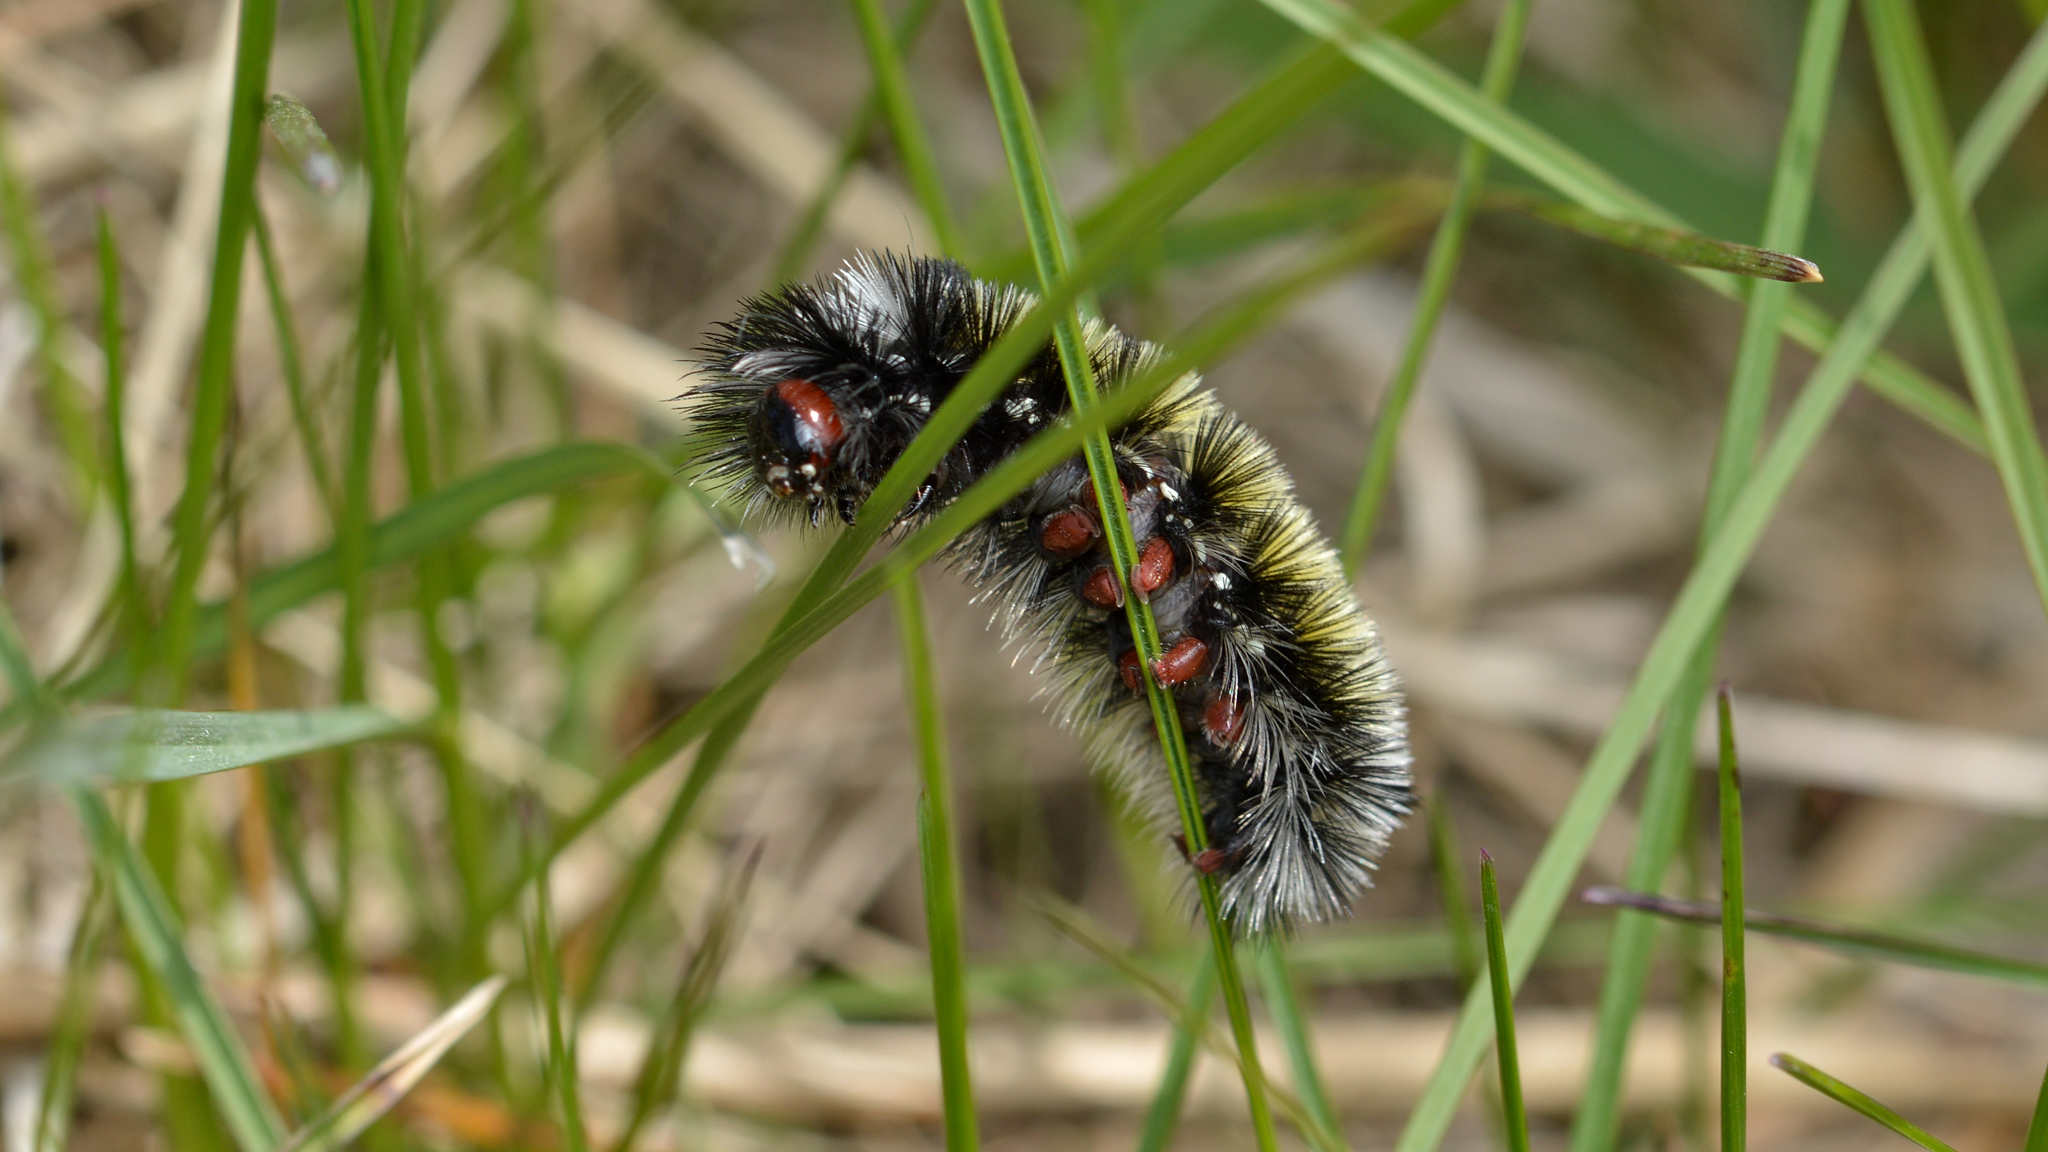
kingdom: Animalia
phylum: Arthropoda
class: Insecta
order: Lepidoptera
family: Erebidae
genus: Ctenucha
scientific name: Ctenucha virginica
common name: Virginia ctenucha moth
